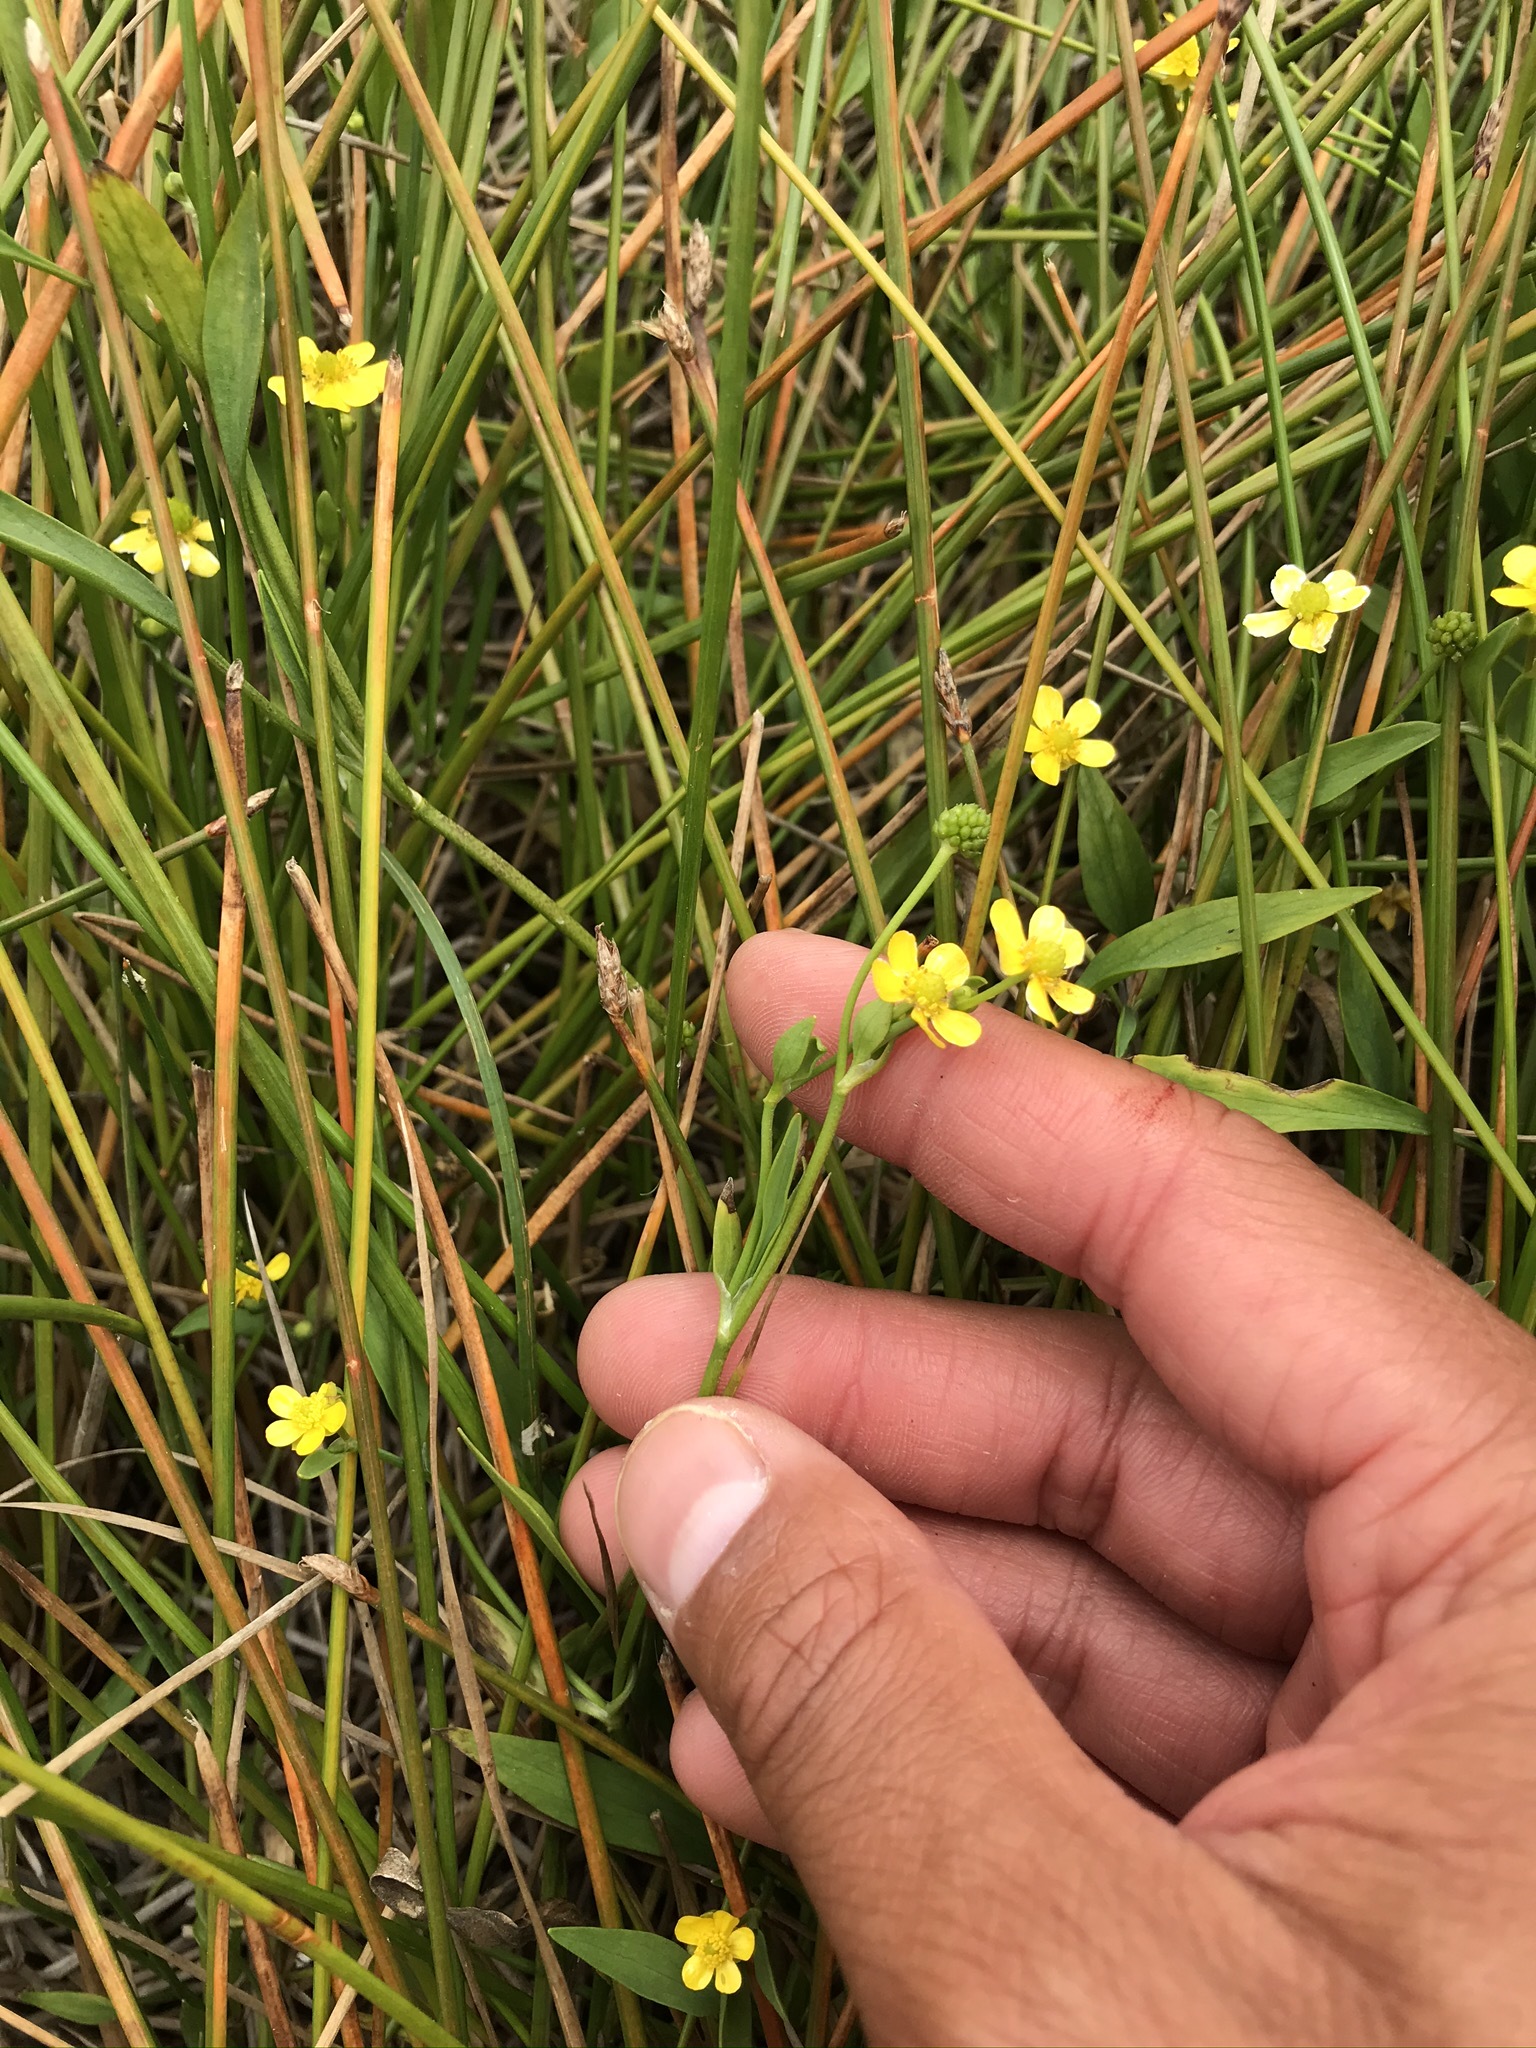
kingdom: Plantae
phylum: Tracheophyta
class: Magnoliopsida
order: Ranunculales
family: Ranunculaceae
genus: Ranunculus
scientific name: Ranunculus flammula
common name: Lesser spearwort
